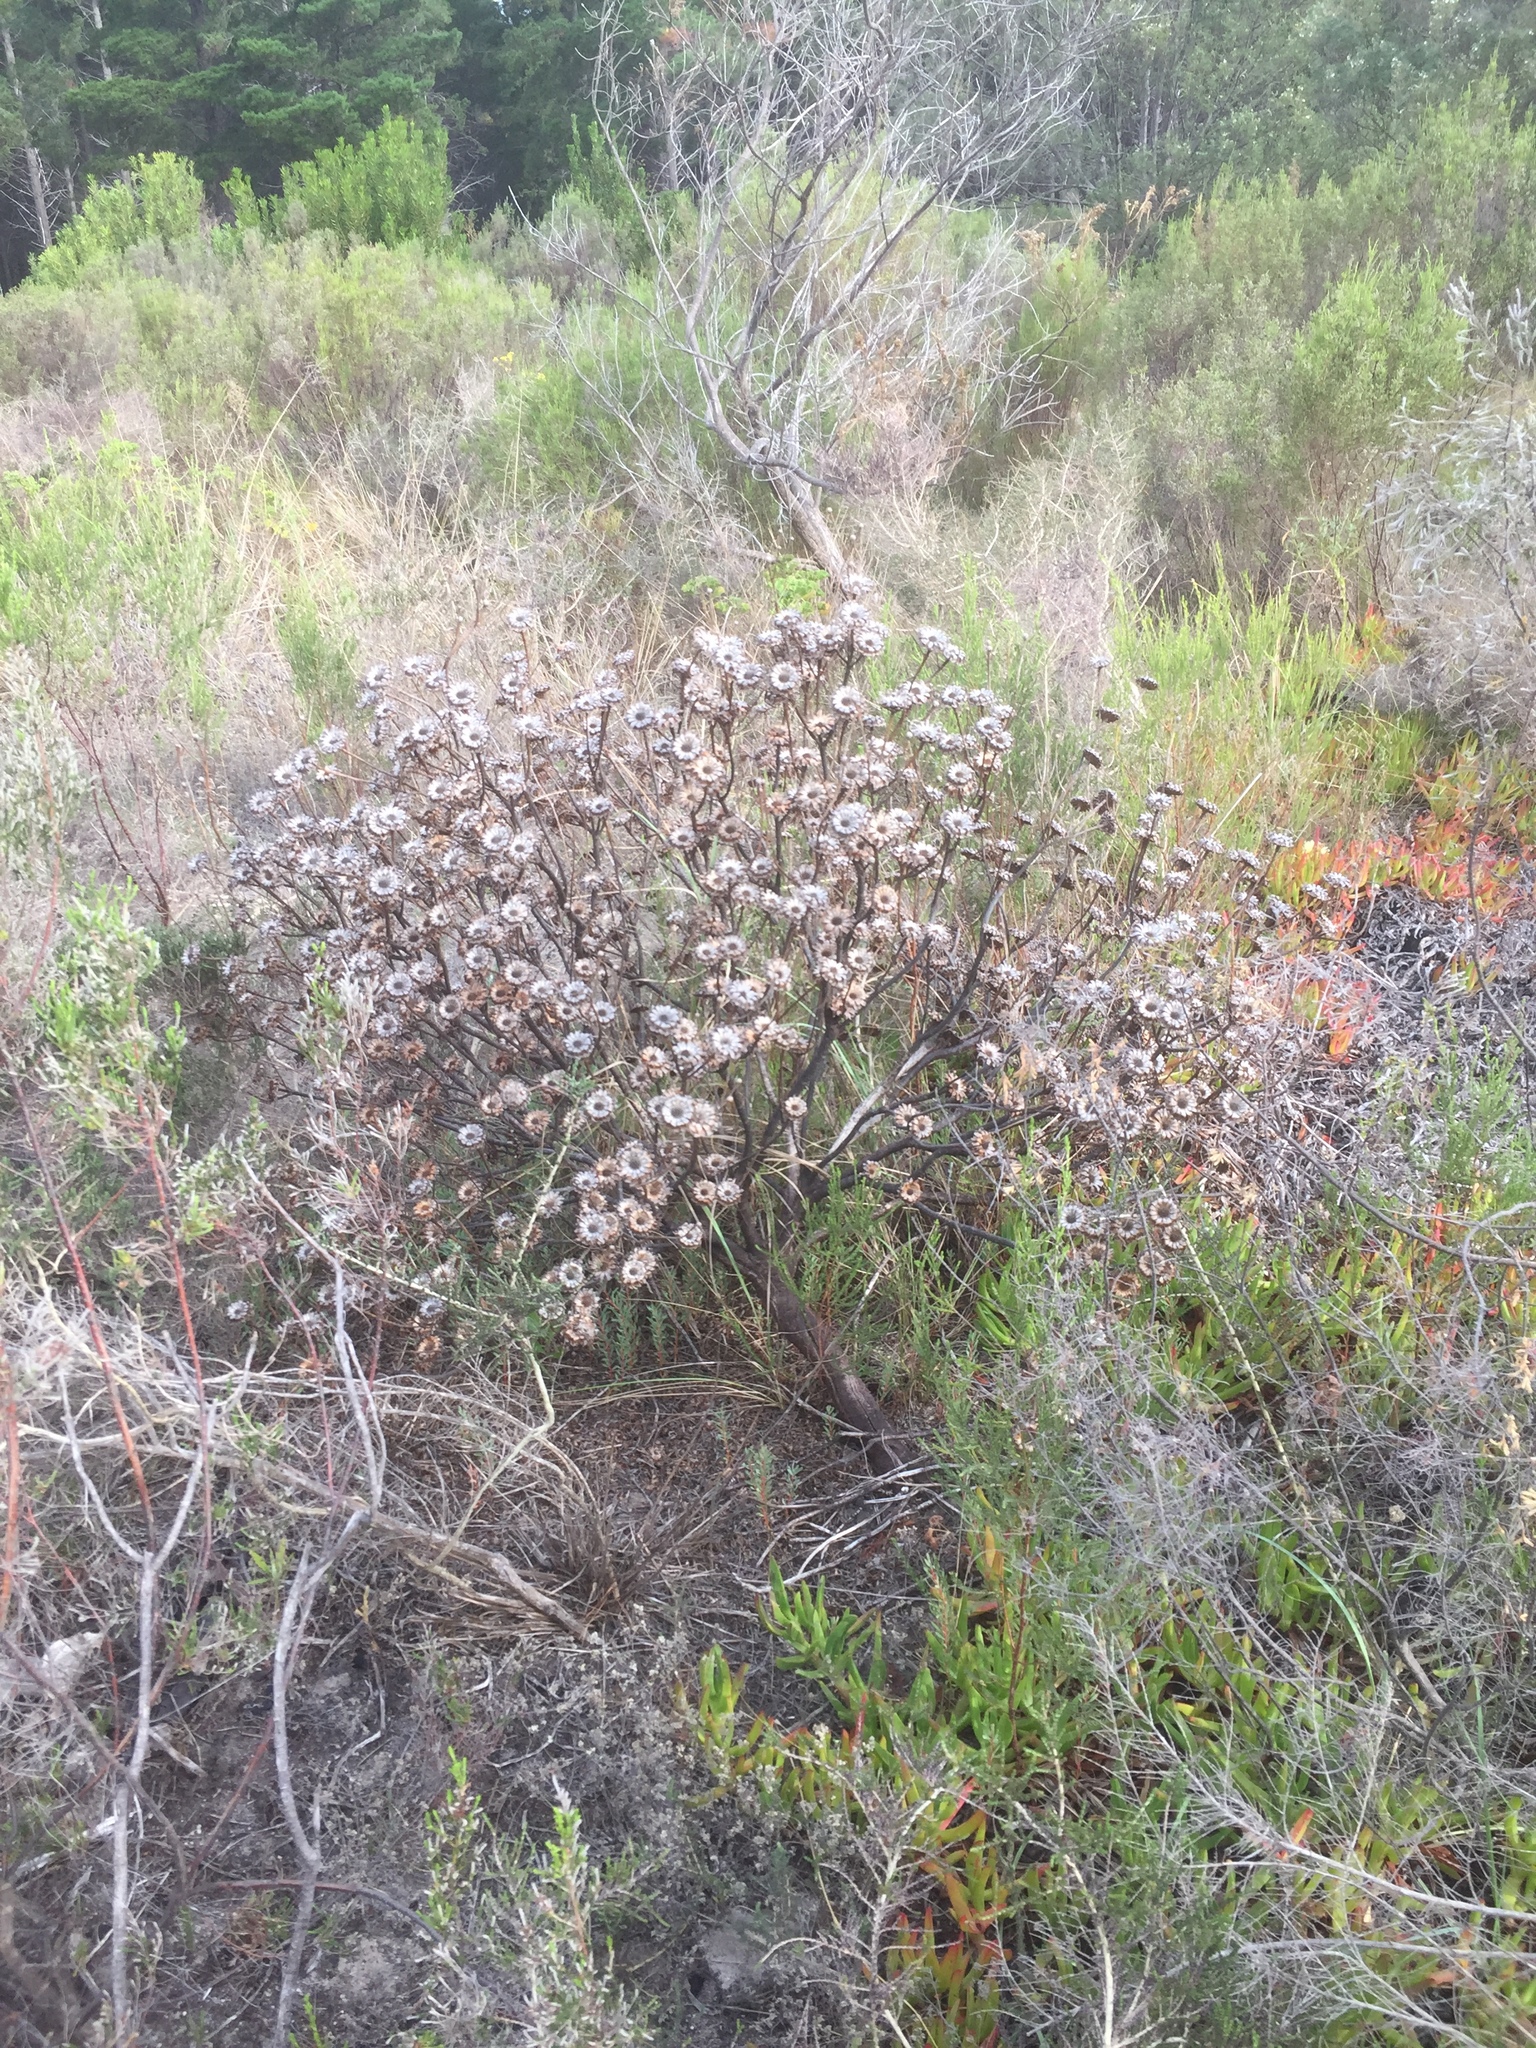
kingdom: Plantae
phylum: Tracheophyta
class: Magnoliopsida
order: Proteales
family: Proteaceae
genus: Protea
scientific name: Protea scolymocephala
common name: Thistle sugarbush
